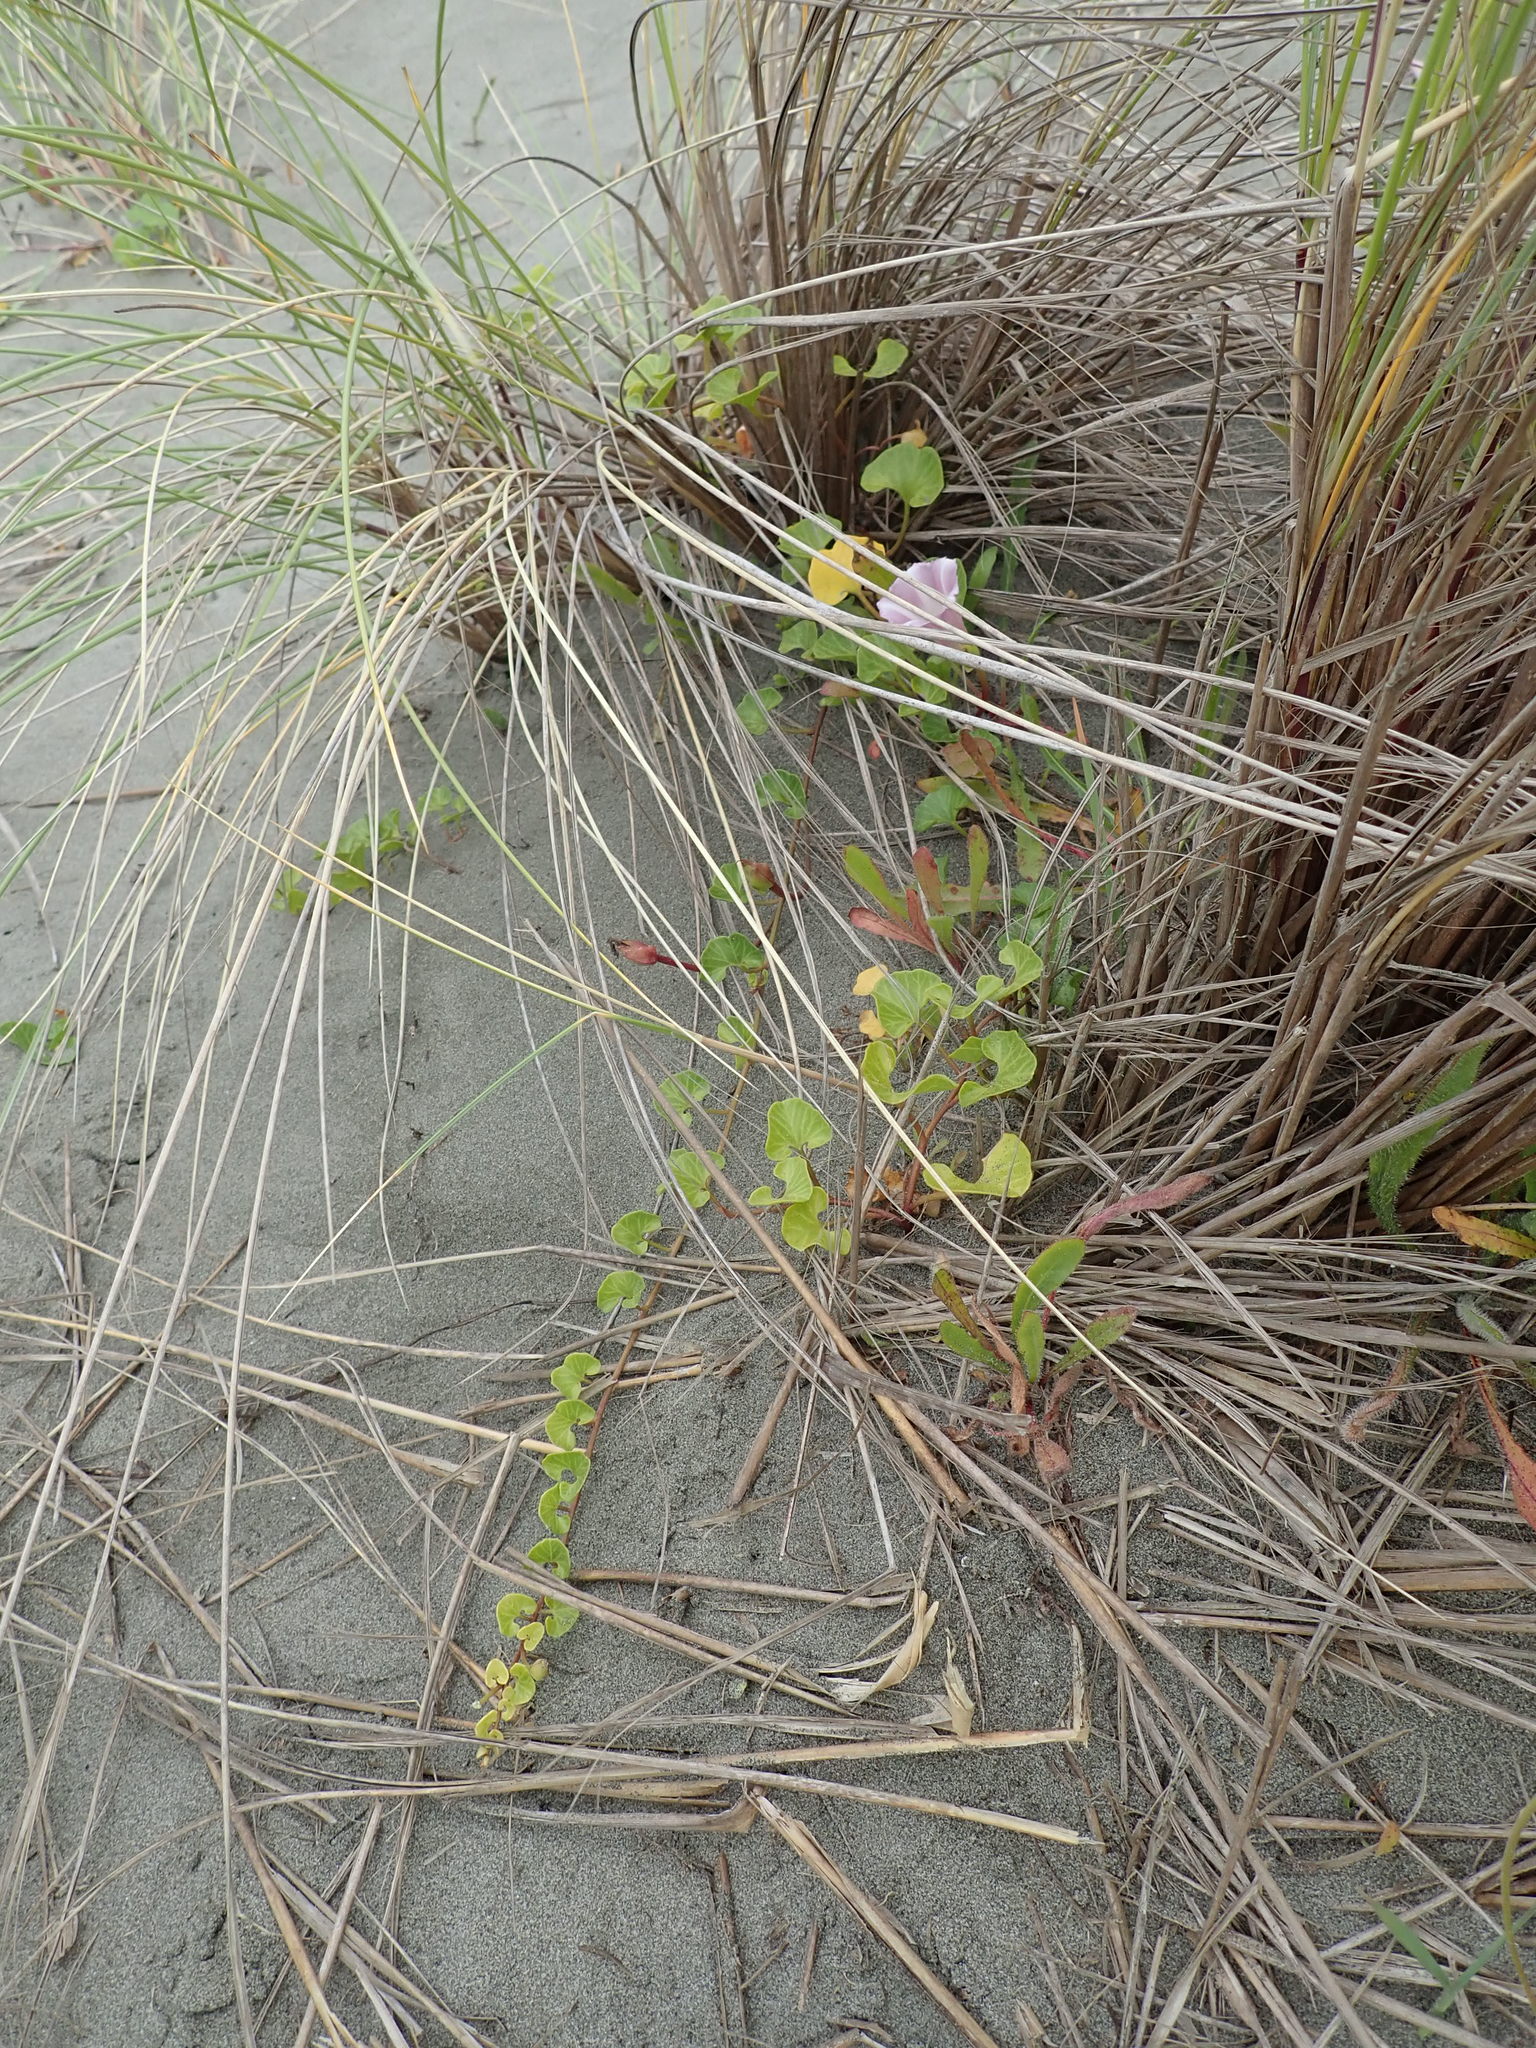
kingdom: Plantae
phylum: Tracheophyta
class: Magnoliopsida
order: Solanales
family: Convolvulaceae
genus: Calystegia
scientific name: Calystegia soldanella
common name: Sea bindweed
